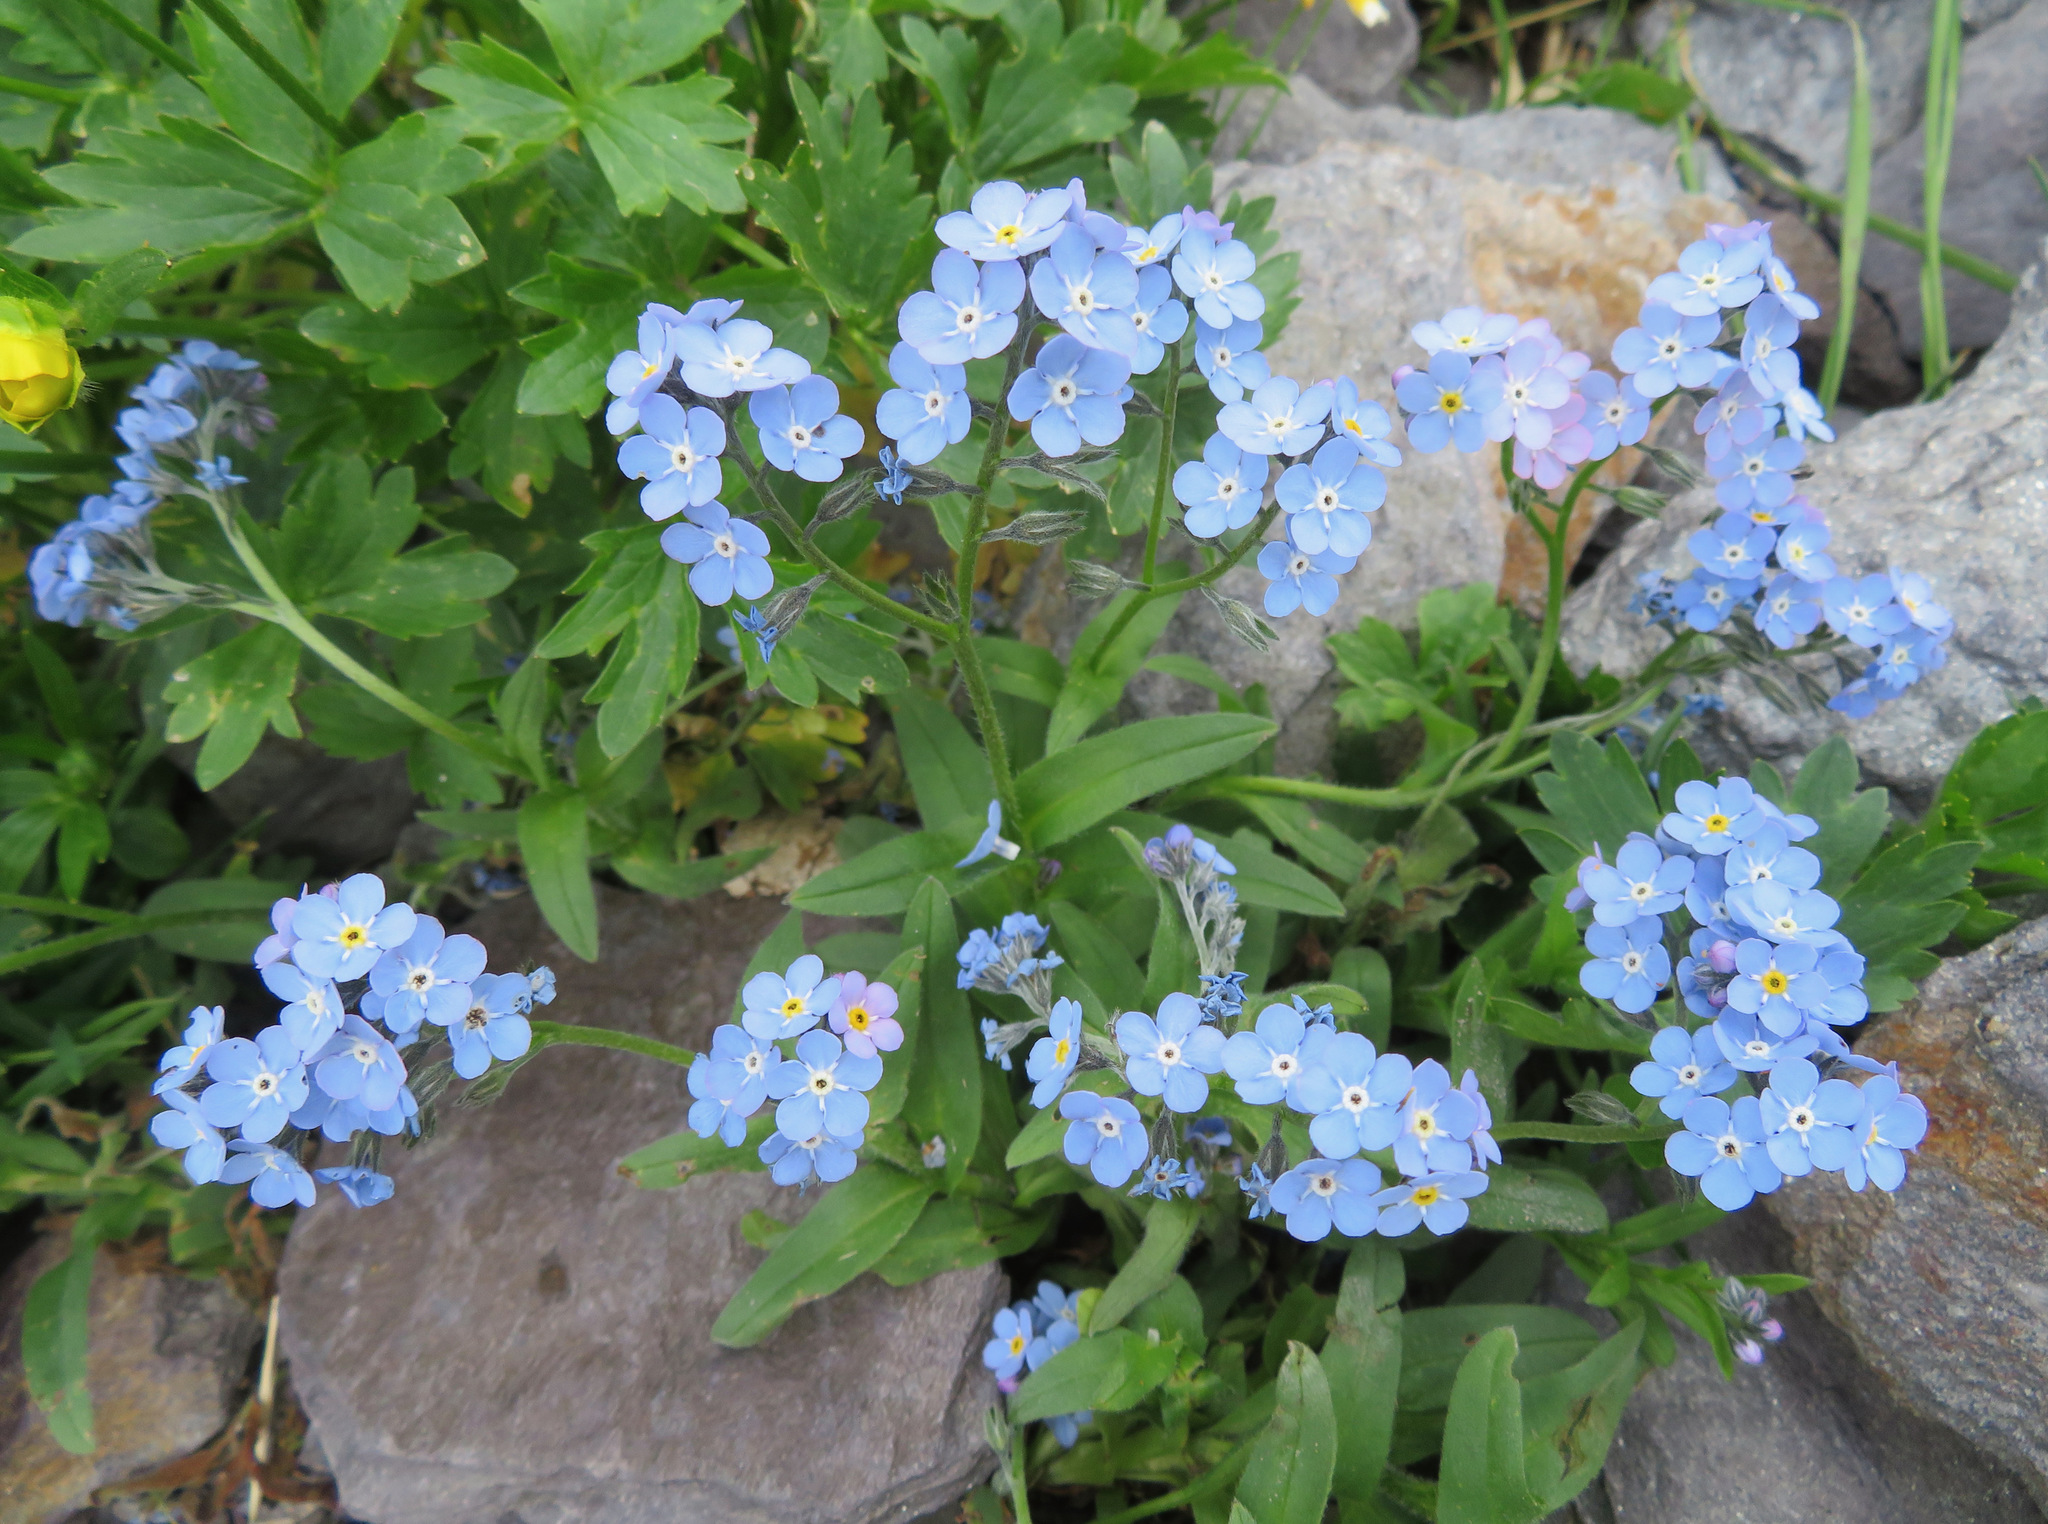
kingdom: Plantae
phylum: Tracheophyta
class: Magnoliopsida
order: Boraginales
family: Boraginaceae
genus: Myosotis
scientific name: Myosotis alpestris
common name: Alpine forget-me-not
